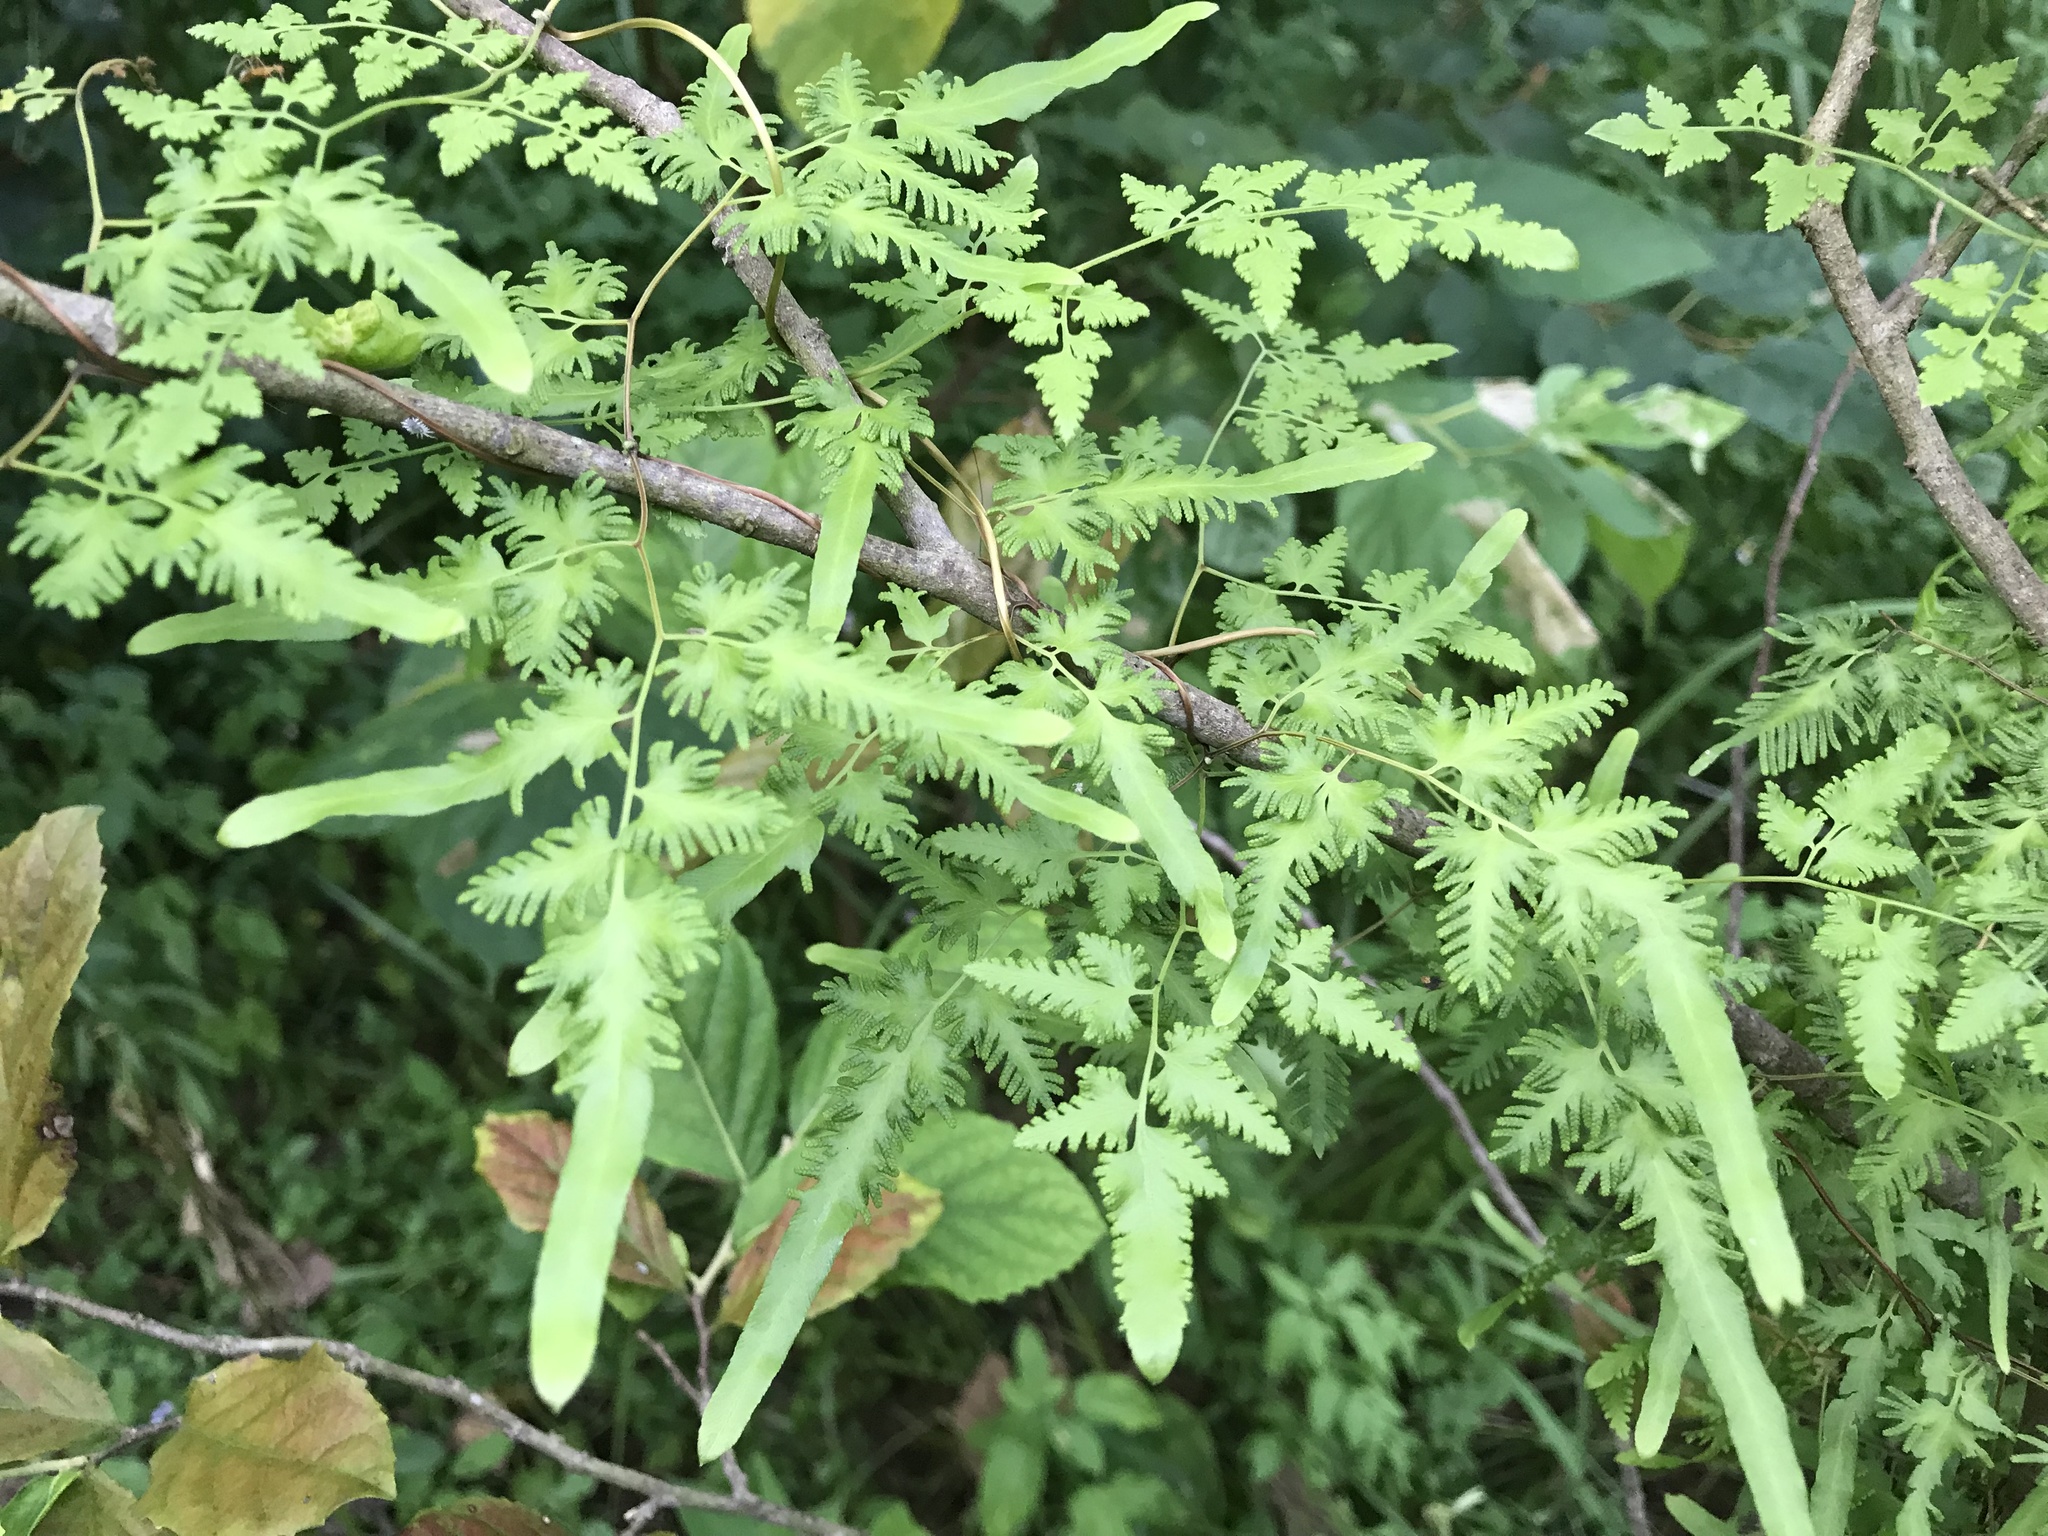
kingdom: Plantae
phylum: Tracheophyta
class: Polypodiopsida
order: Schizaeales
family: Lygodiaceae
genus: Lygodium
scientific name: Lygodium japonicum
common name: Japanese climbing fern
